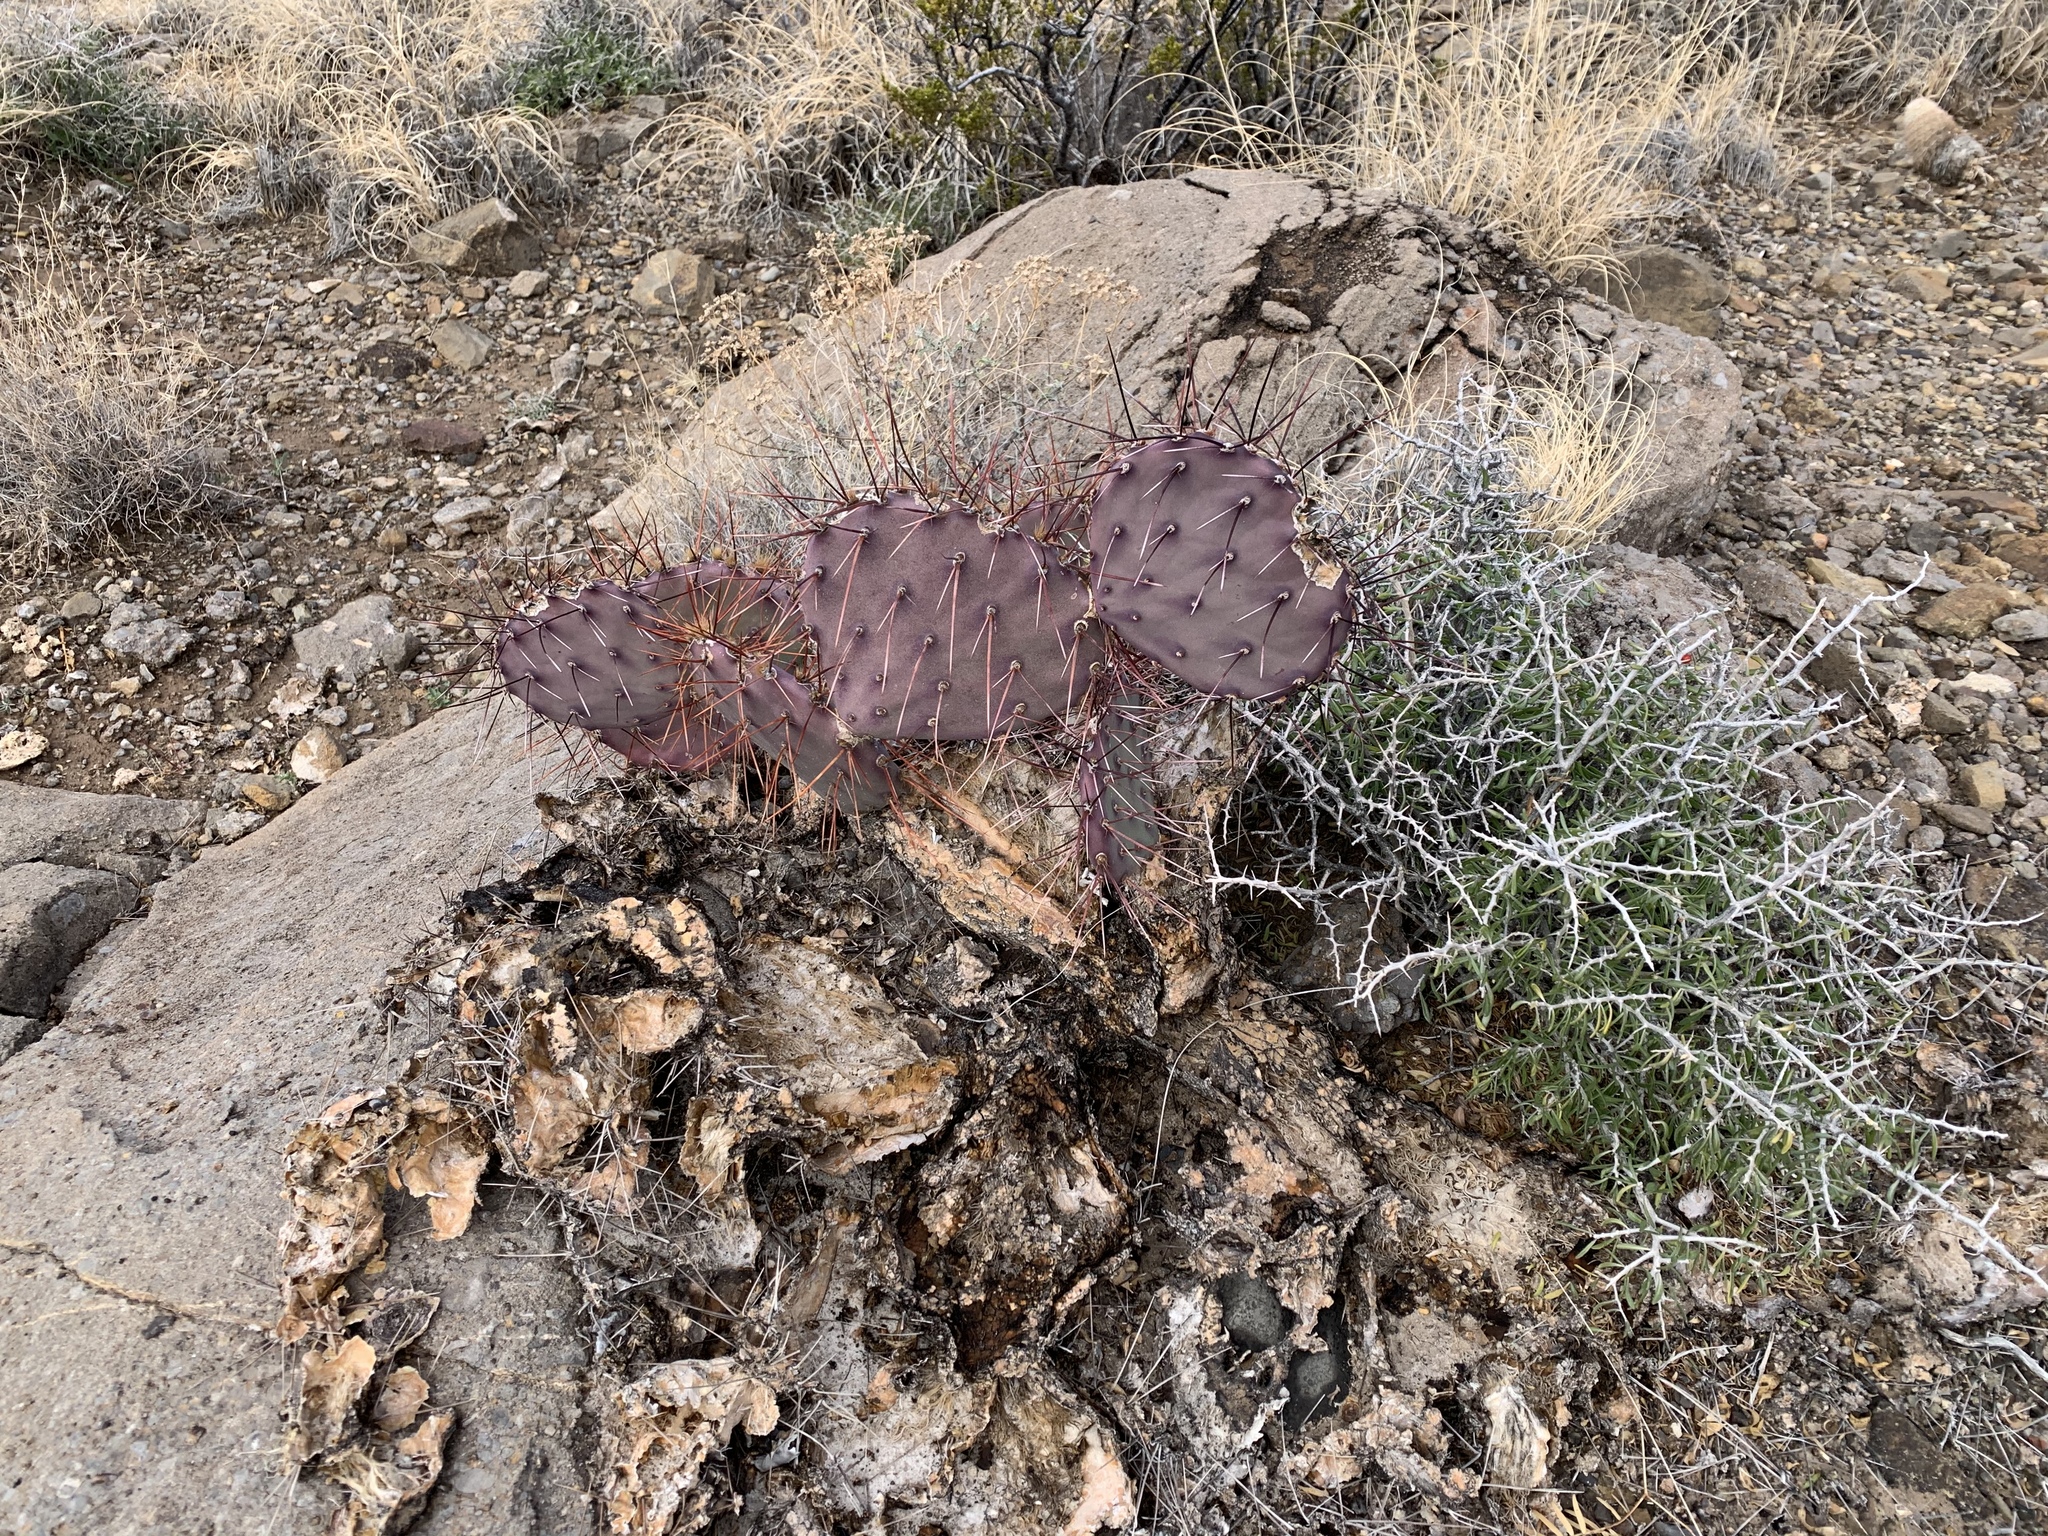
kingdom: Plantae
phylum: Tracheophyta
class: Magnoliopsida
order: Caryophyllales
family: Cactaceae
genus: Opuntia
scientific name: Opuntia macrocentra
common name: Purple prickly-pear
